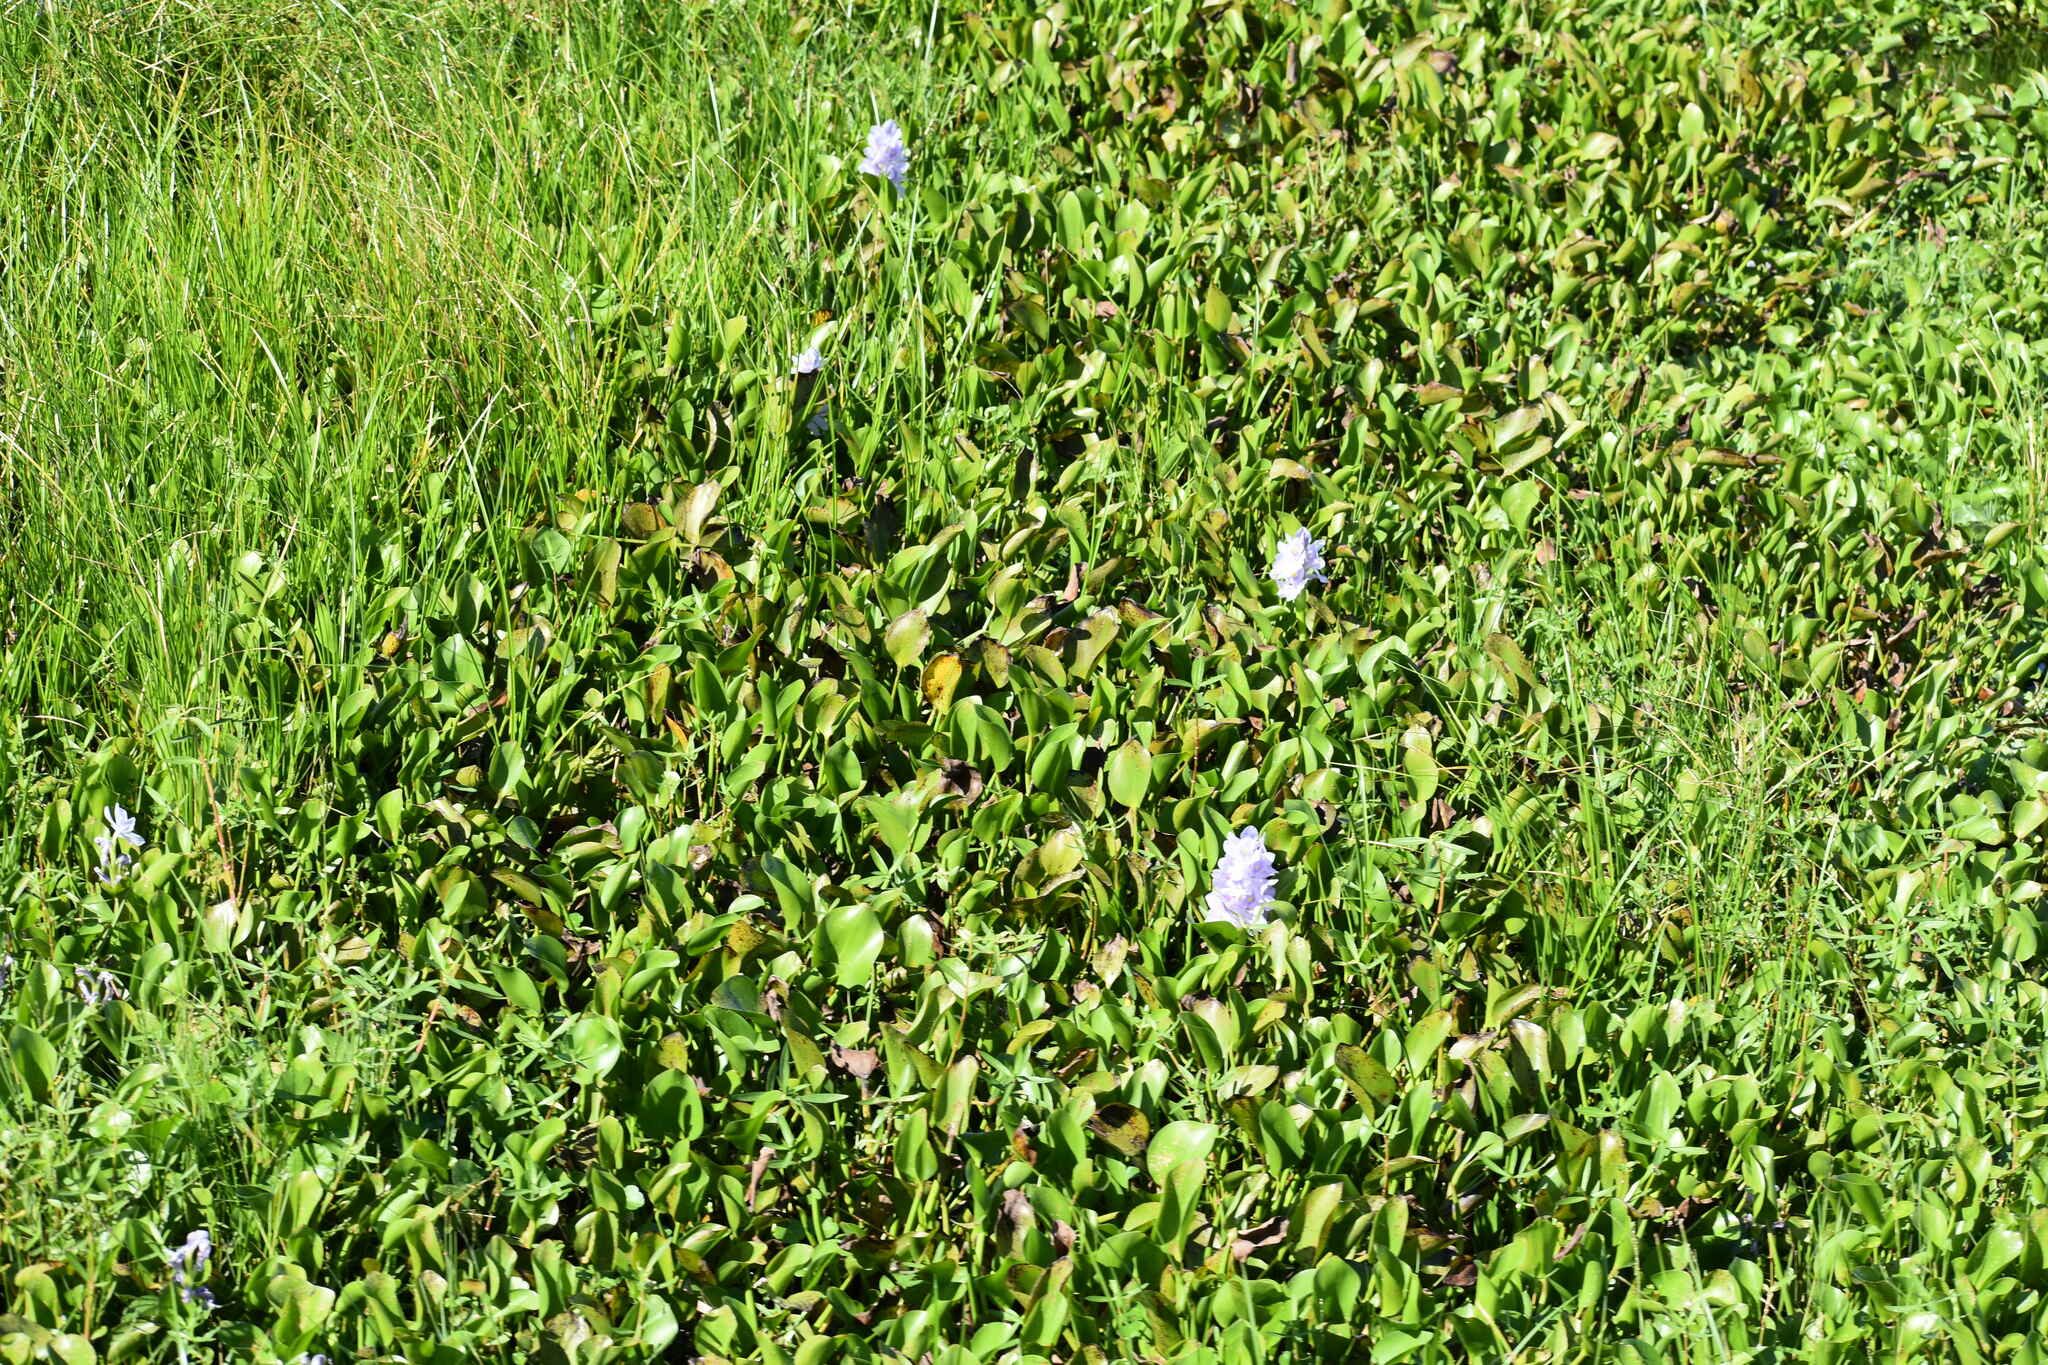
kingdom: Plantae
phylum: Tracheophyta
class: Liliopsida
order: Commelinales
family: Pontederiaceae
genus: Pontederia
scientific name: Pontederia crassipes
